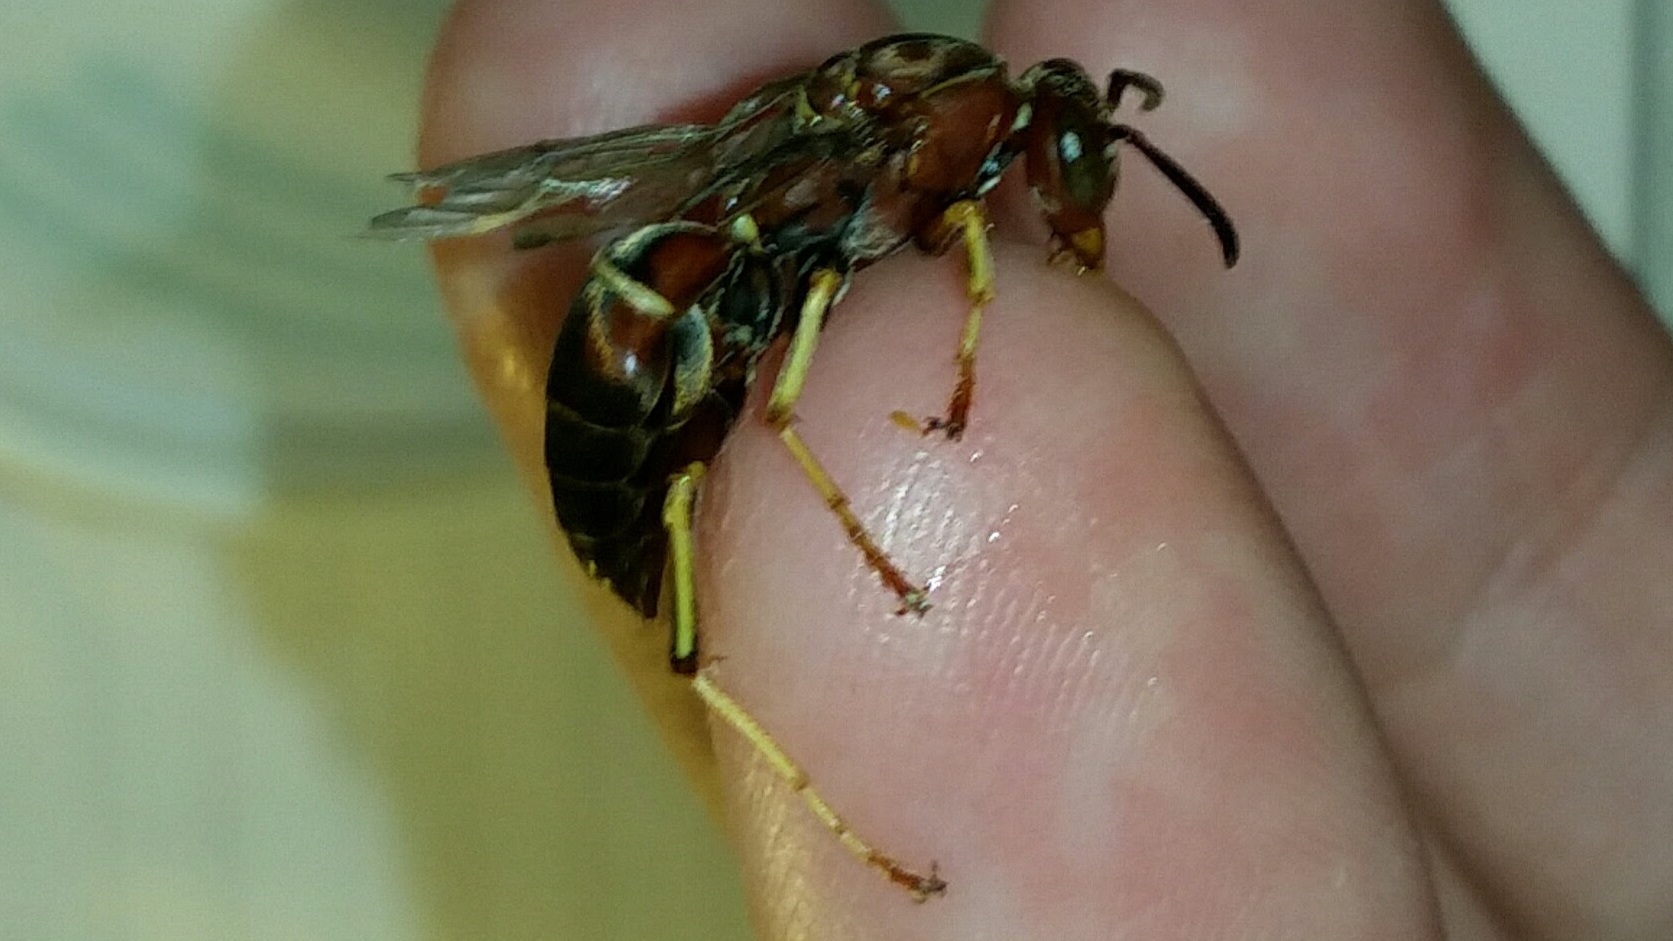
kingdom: Animalia
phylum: Arthropoda
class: Insecta
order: Hymenoptera
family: Eumenidae
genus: Polistes
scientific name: Polistes fuscatus
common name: Dark paper wasp
